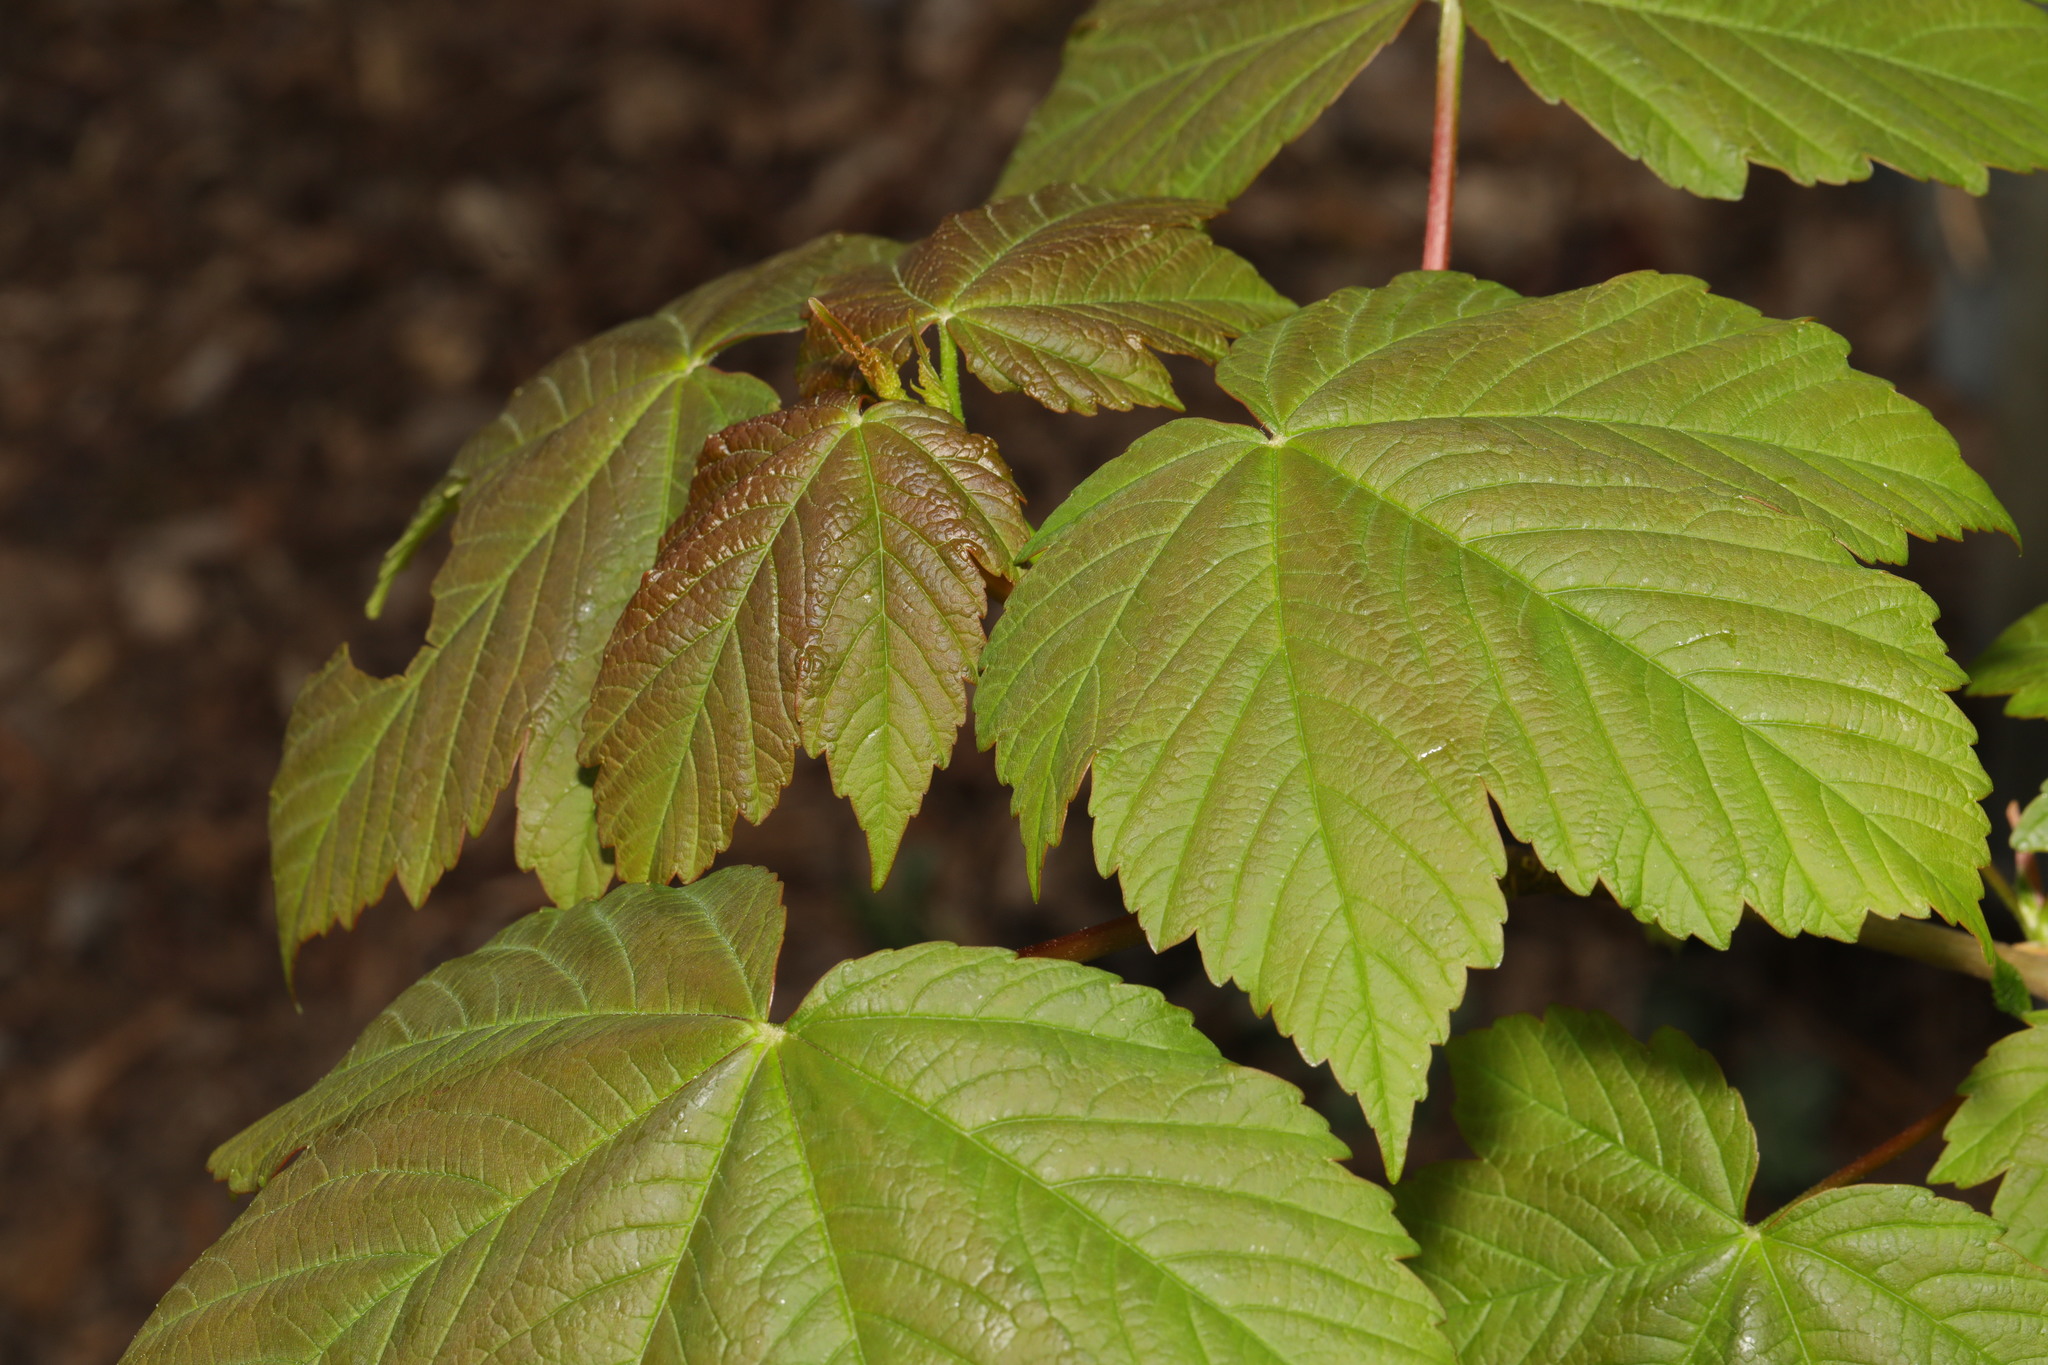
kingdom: Plantae
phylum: Tracheophyta
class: Magnoliopsida
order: Sapindales
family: Sapindaceae
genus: Acer
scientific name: Acer pseudoplatanus
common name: Sycamore
